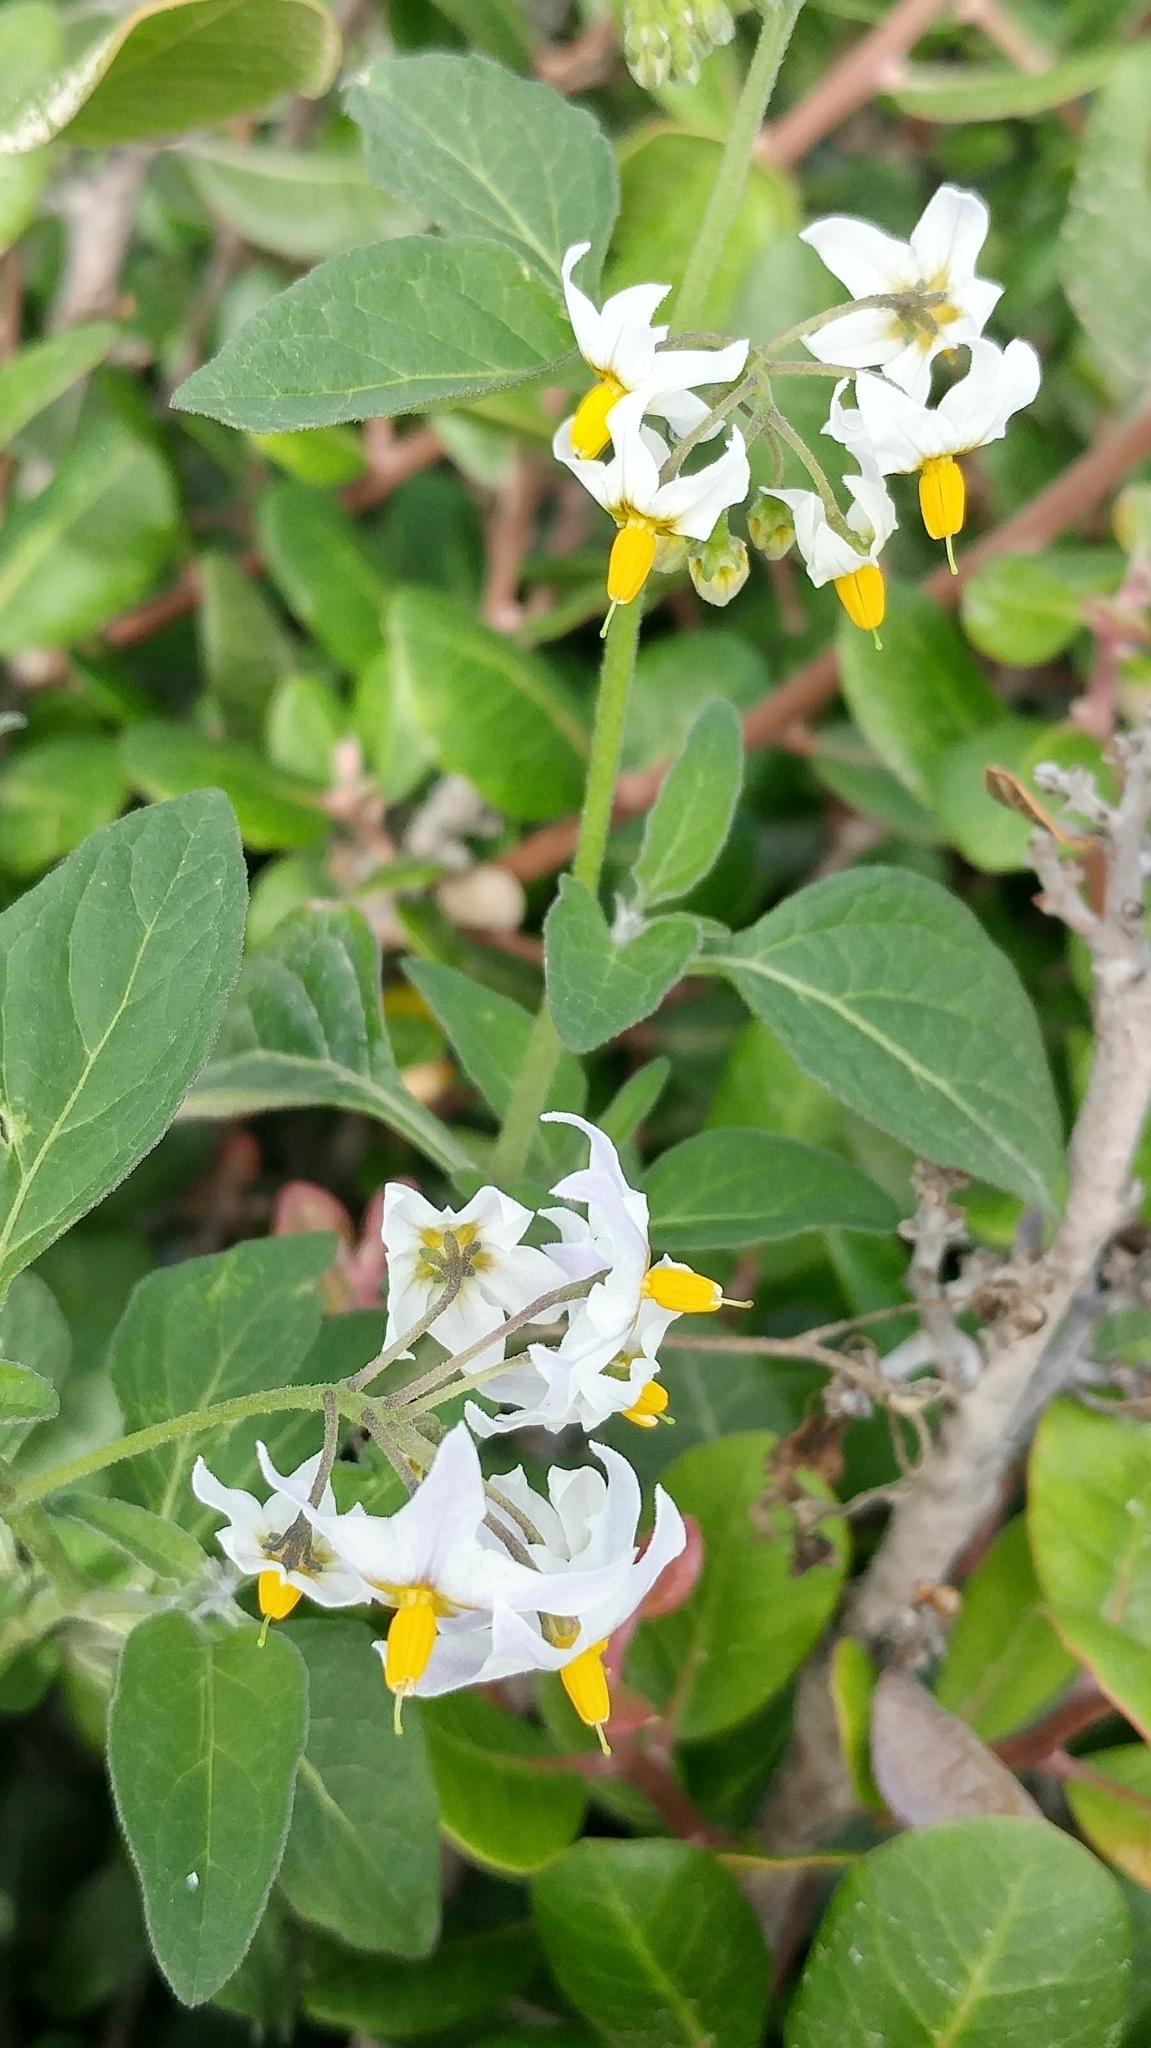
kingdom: Plantae
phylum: Tracheophyta
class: Magnoliopsida
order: Solanales
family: Solanaceae
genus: Solanum
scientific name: Solanum douglasii
